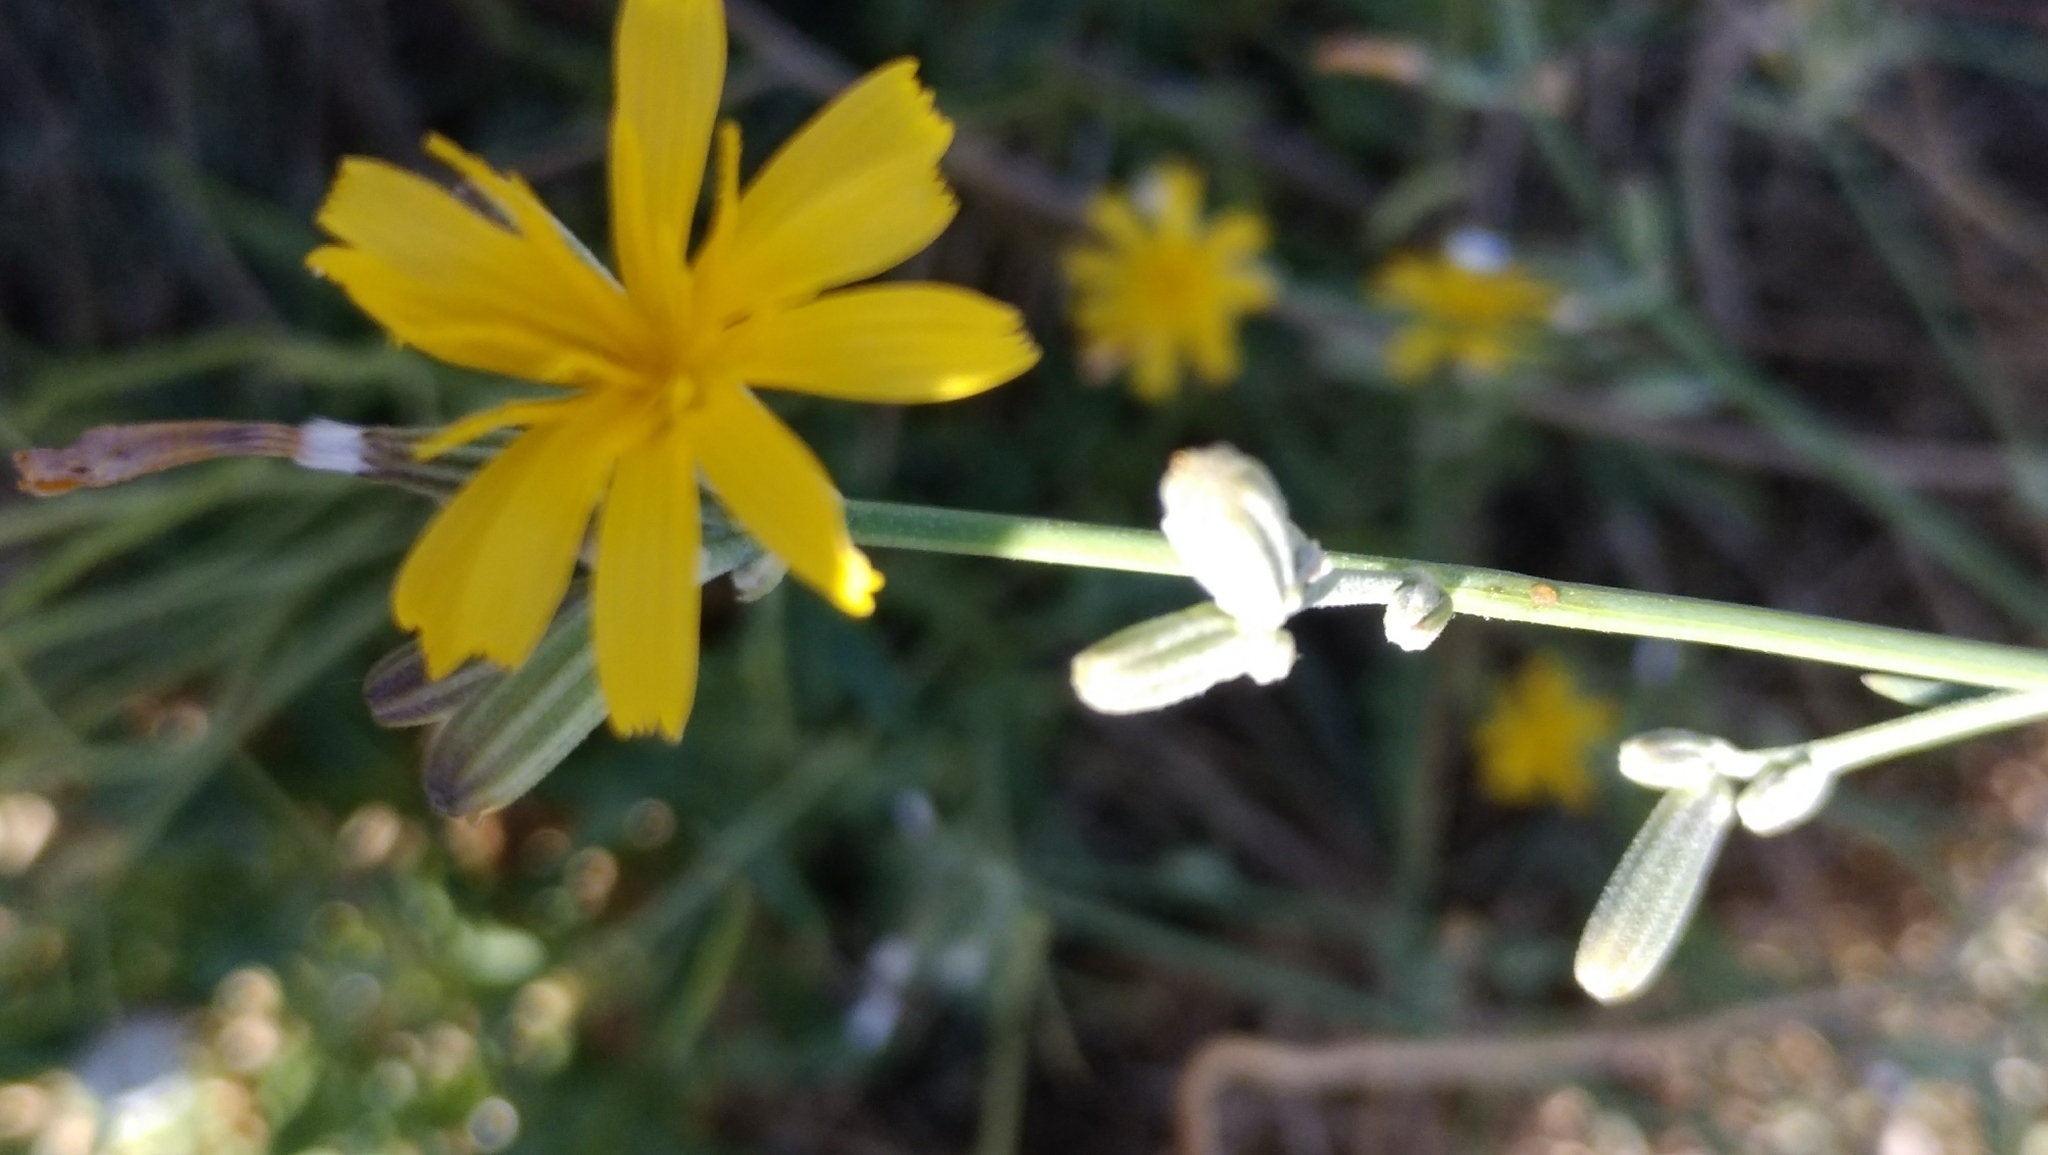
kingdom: Plantae
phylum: Tracheophyta
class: Magnoliopsida
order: Asterales
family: Asteraceae
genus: Chondrilla
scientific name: Chondrilla juncea
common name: Skeleton weed
